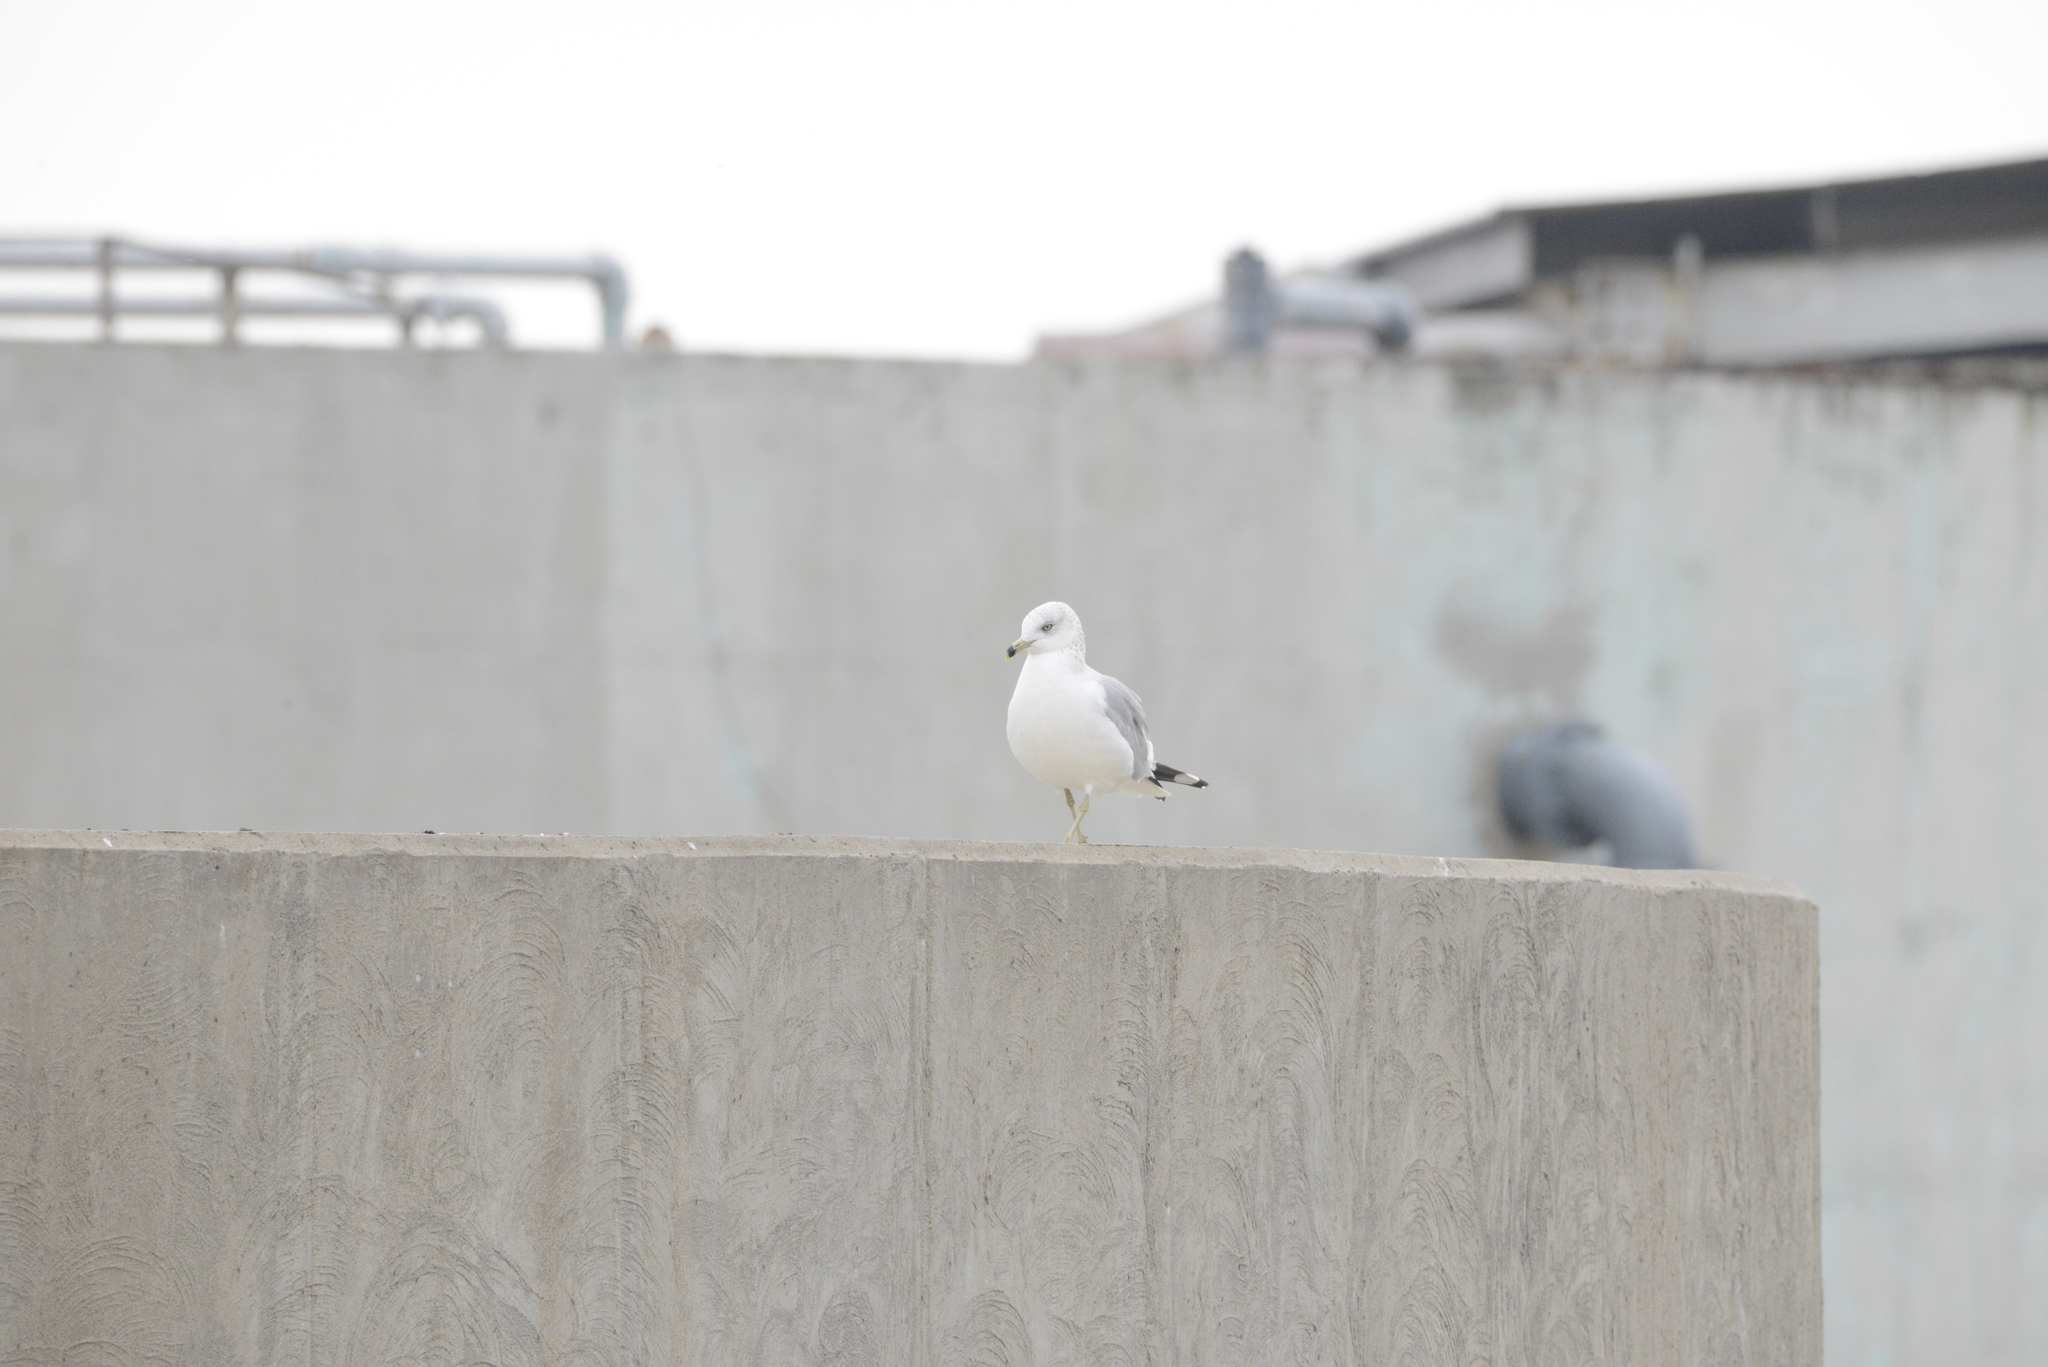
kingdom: Animalia
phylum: Chordata
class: Aves
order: Charadriiformes
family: Laridae
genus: Larus
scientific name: Larus delawarensis
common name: Ring-billed gull
